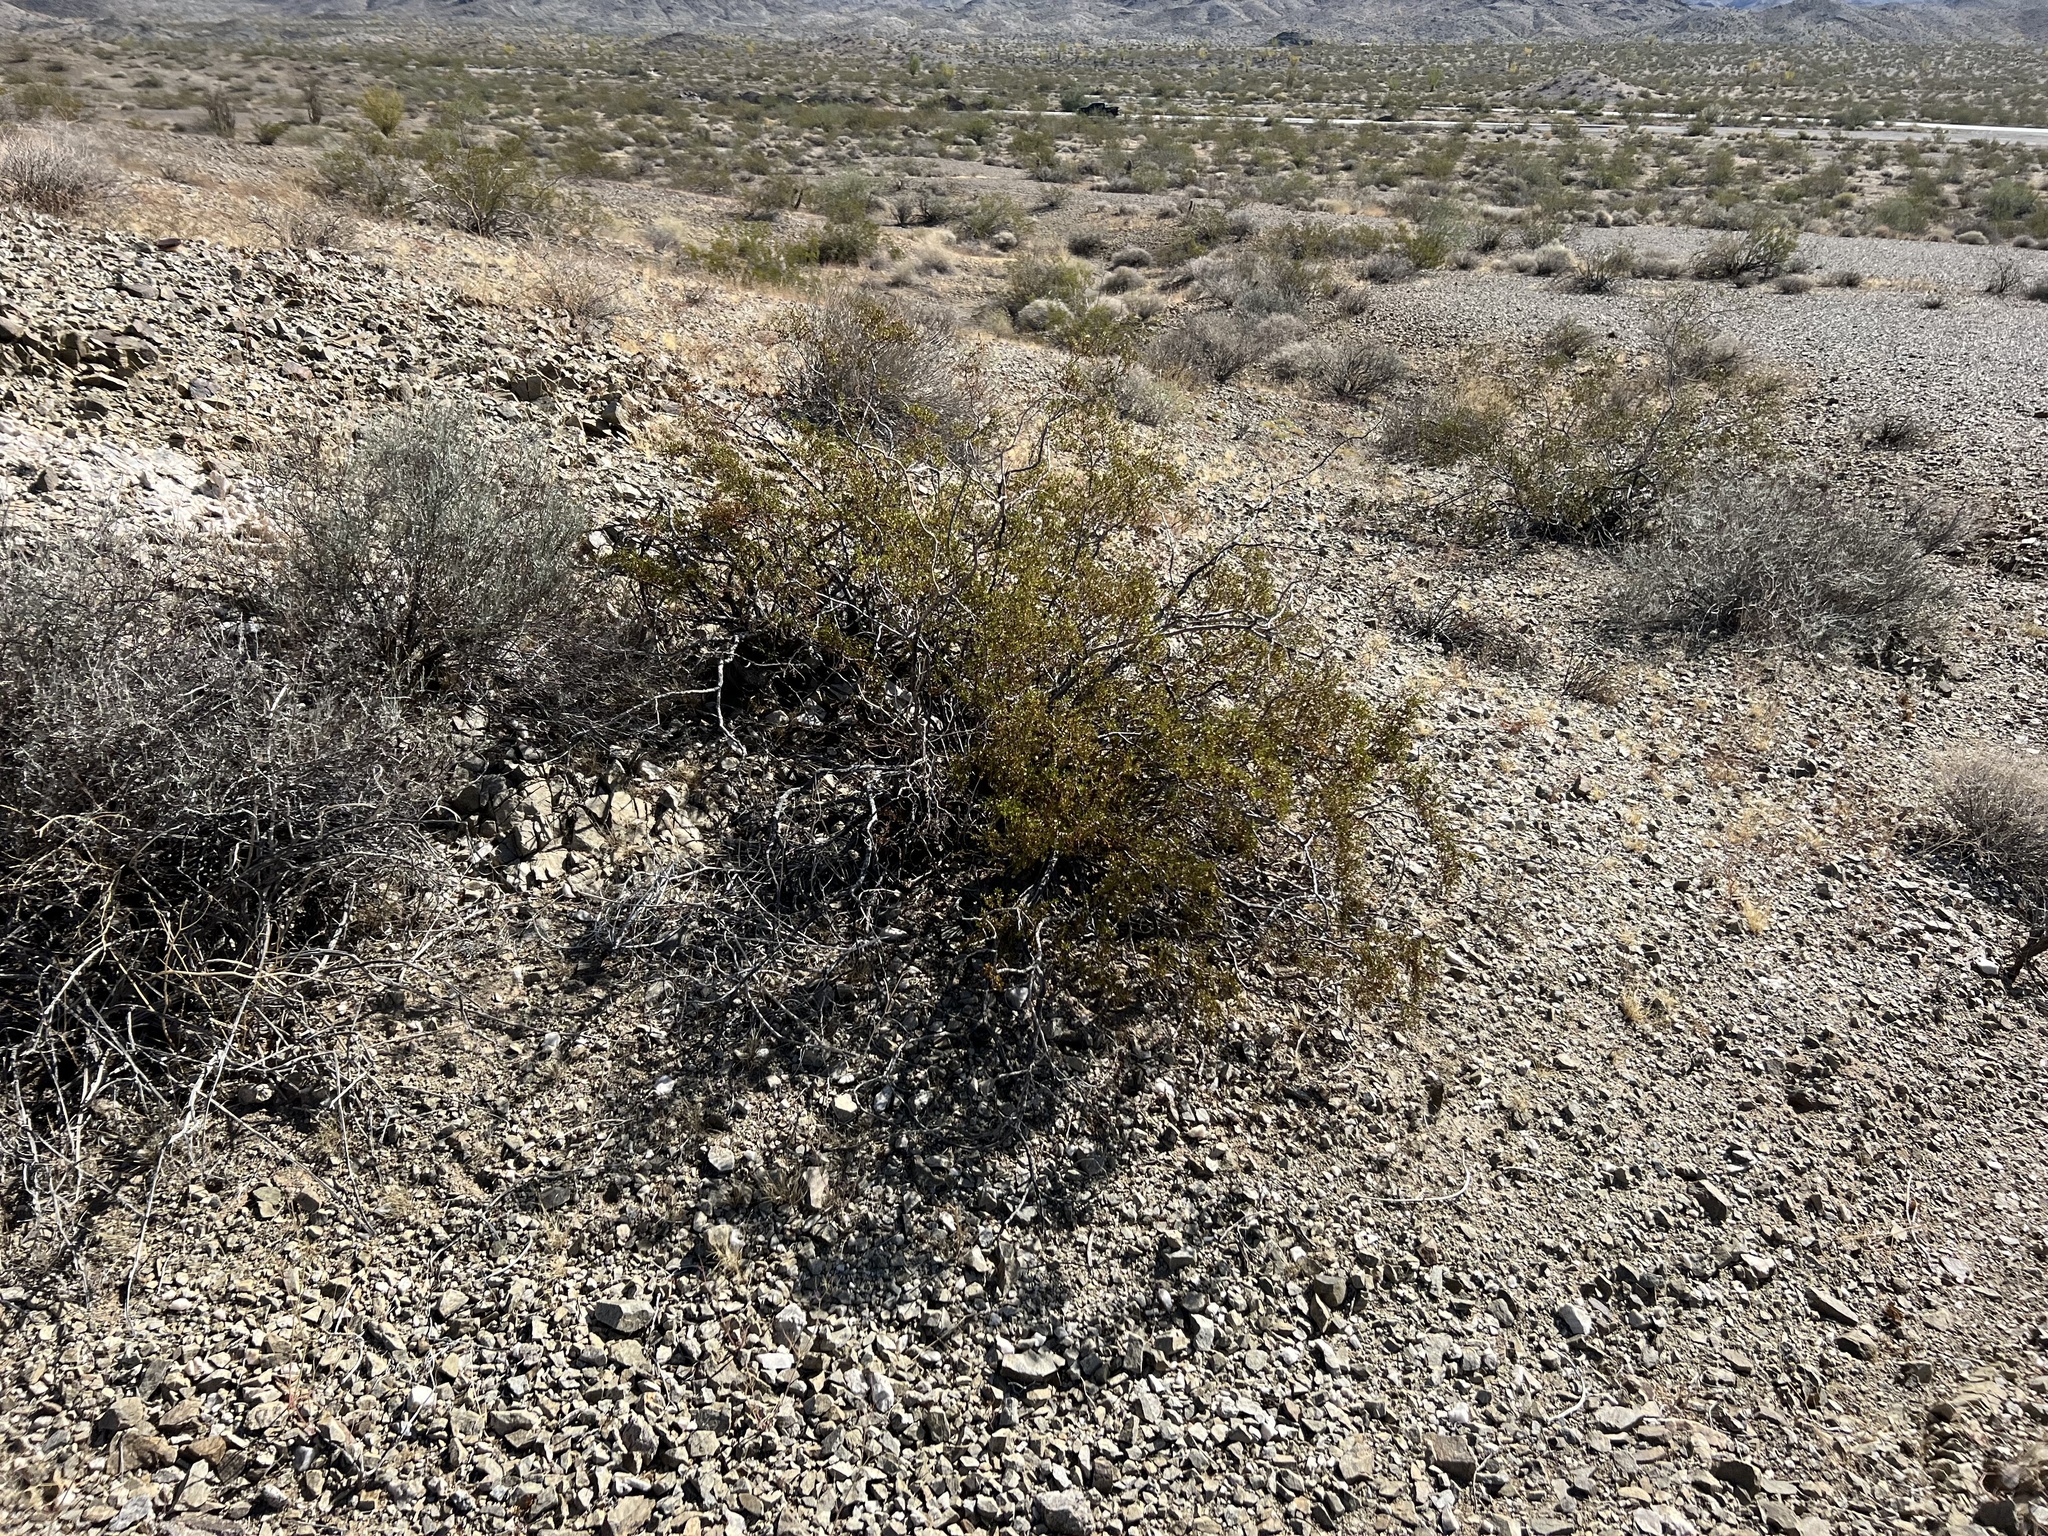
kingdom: Plantae
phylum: Tracheophyta
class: Magnoliopsida
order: Zygophyllales
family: Zygophyllaceae
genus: Larrea
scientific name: Larrea tridentata
